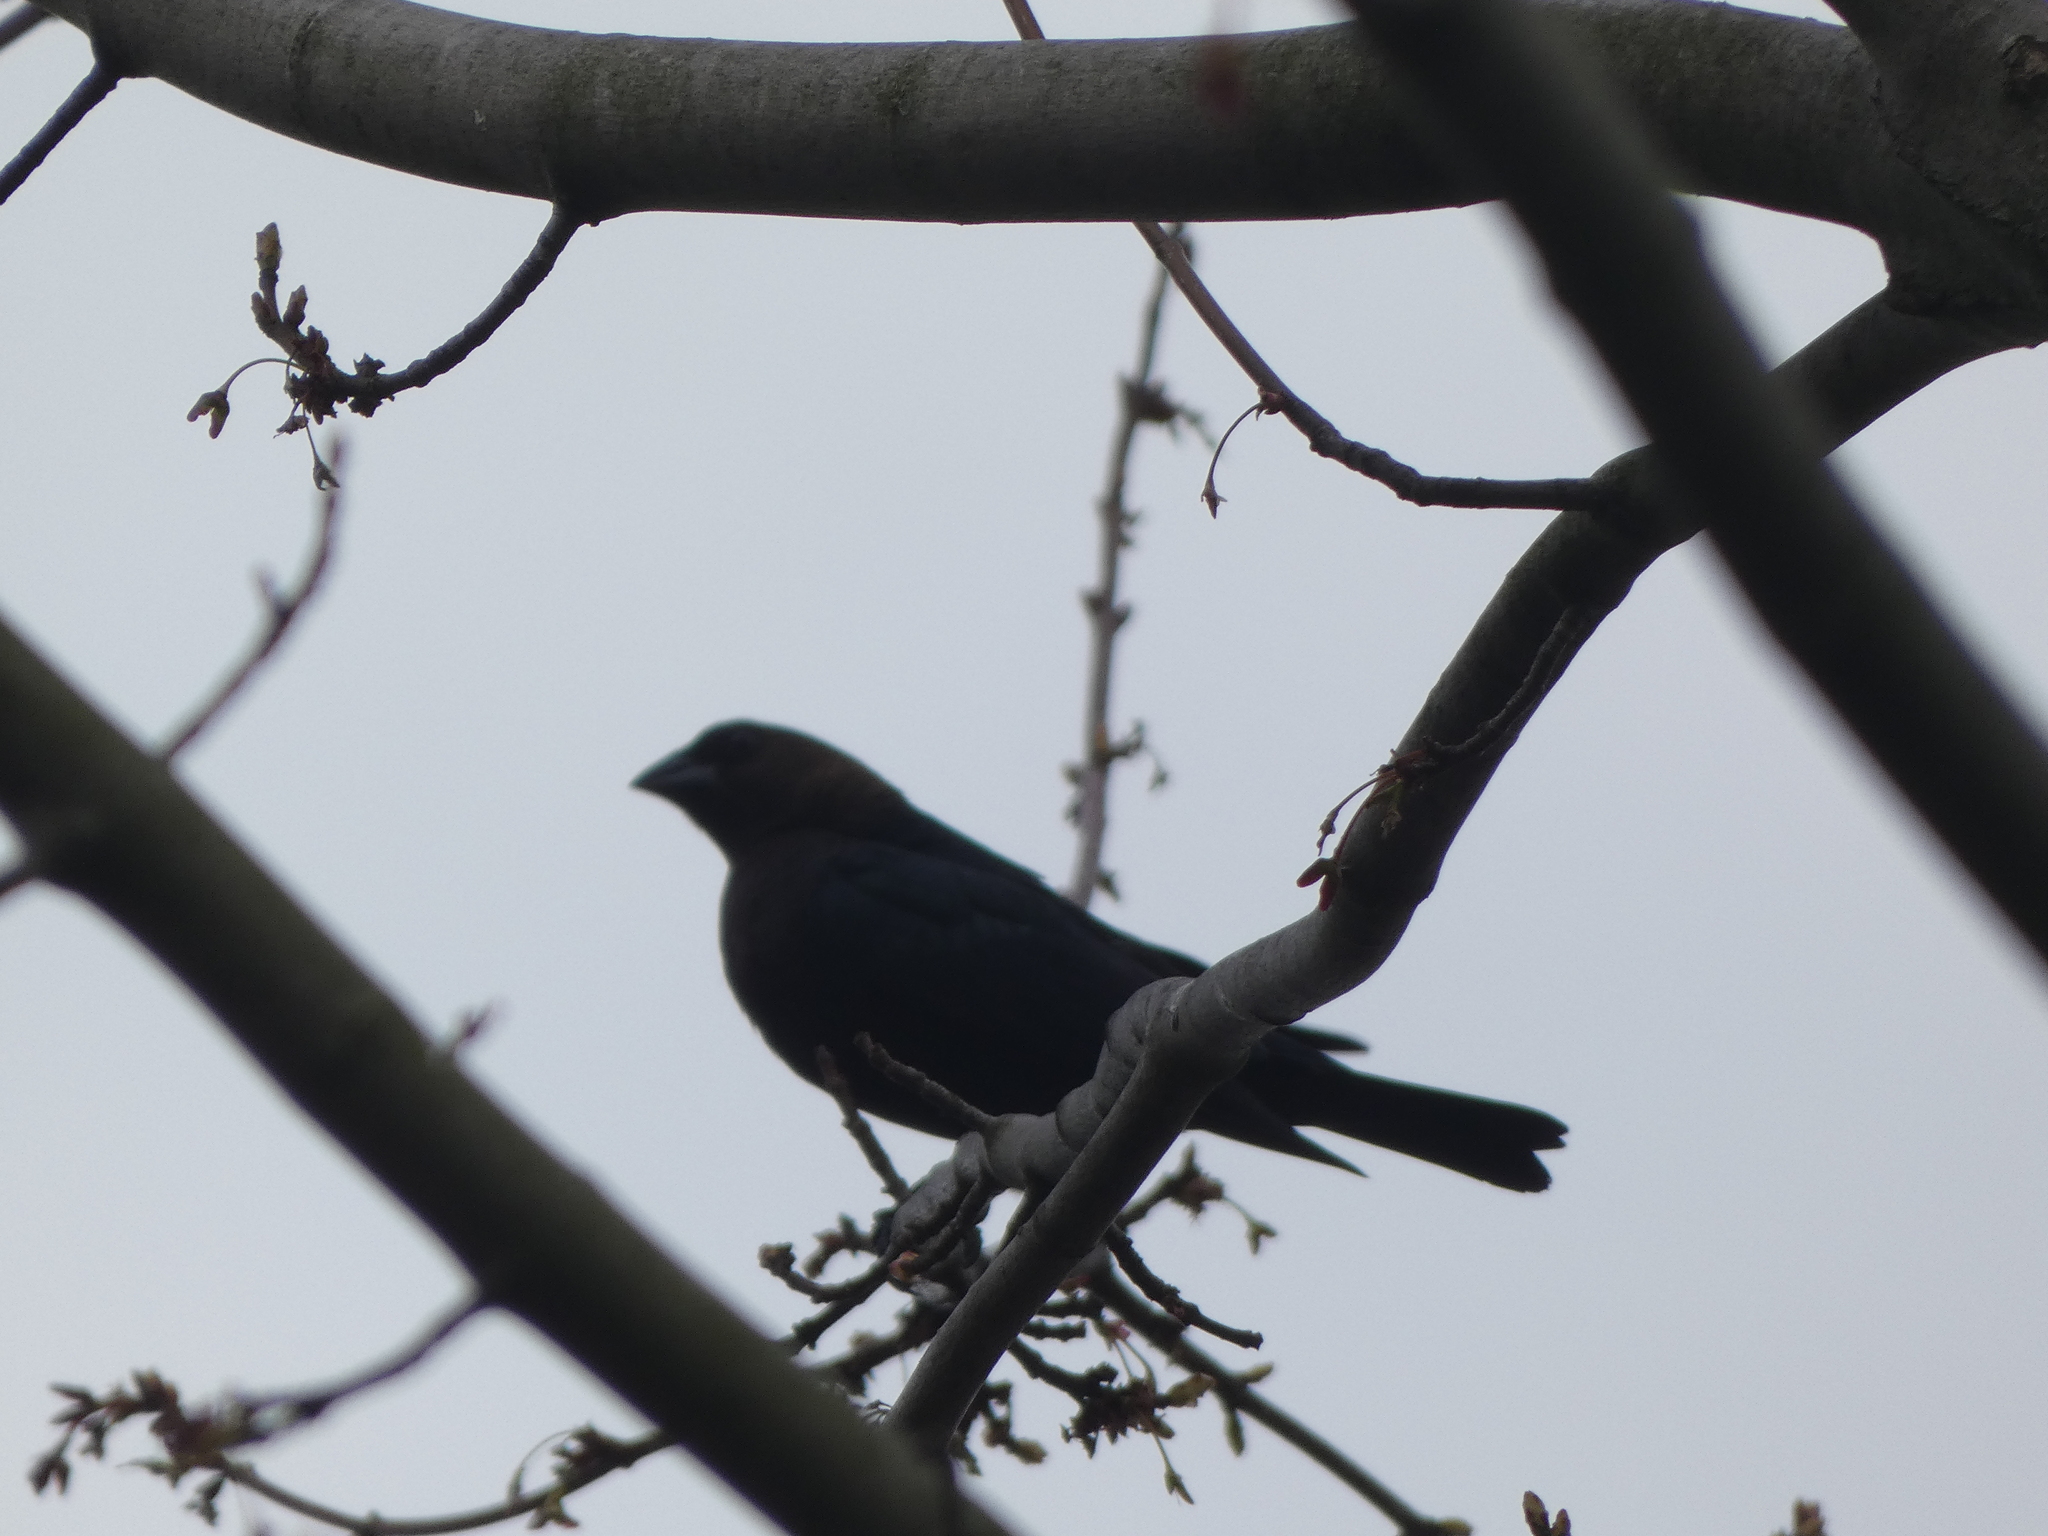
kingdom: Animalia
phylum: Chordata
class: Aves
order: Passeriformes
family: Icteridae
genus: Molothrus
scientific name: Molothrus ater
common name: Brown-headed cowbird
